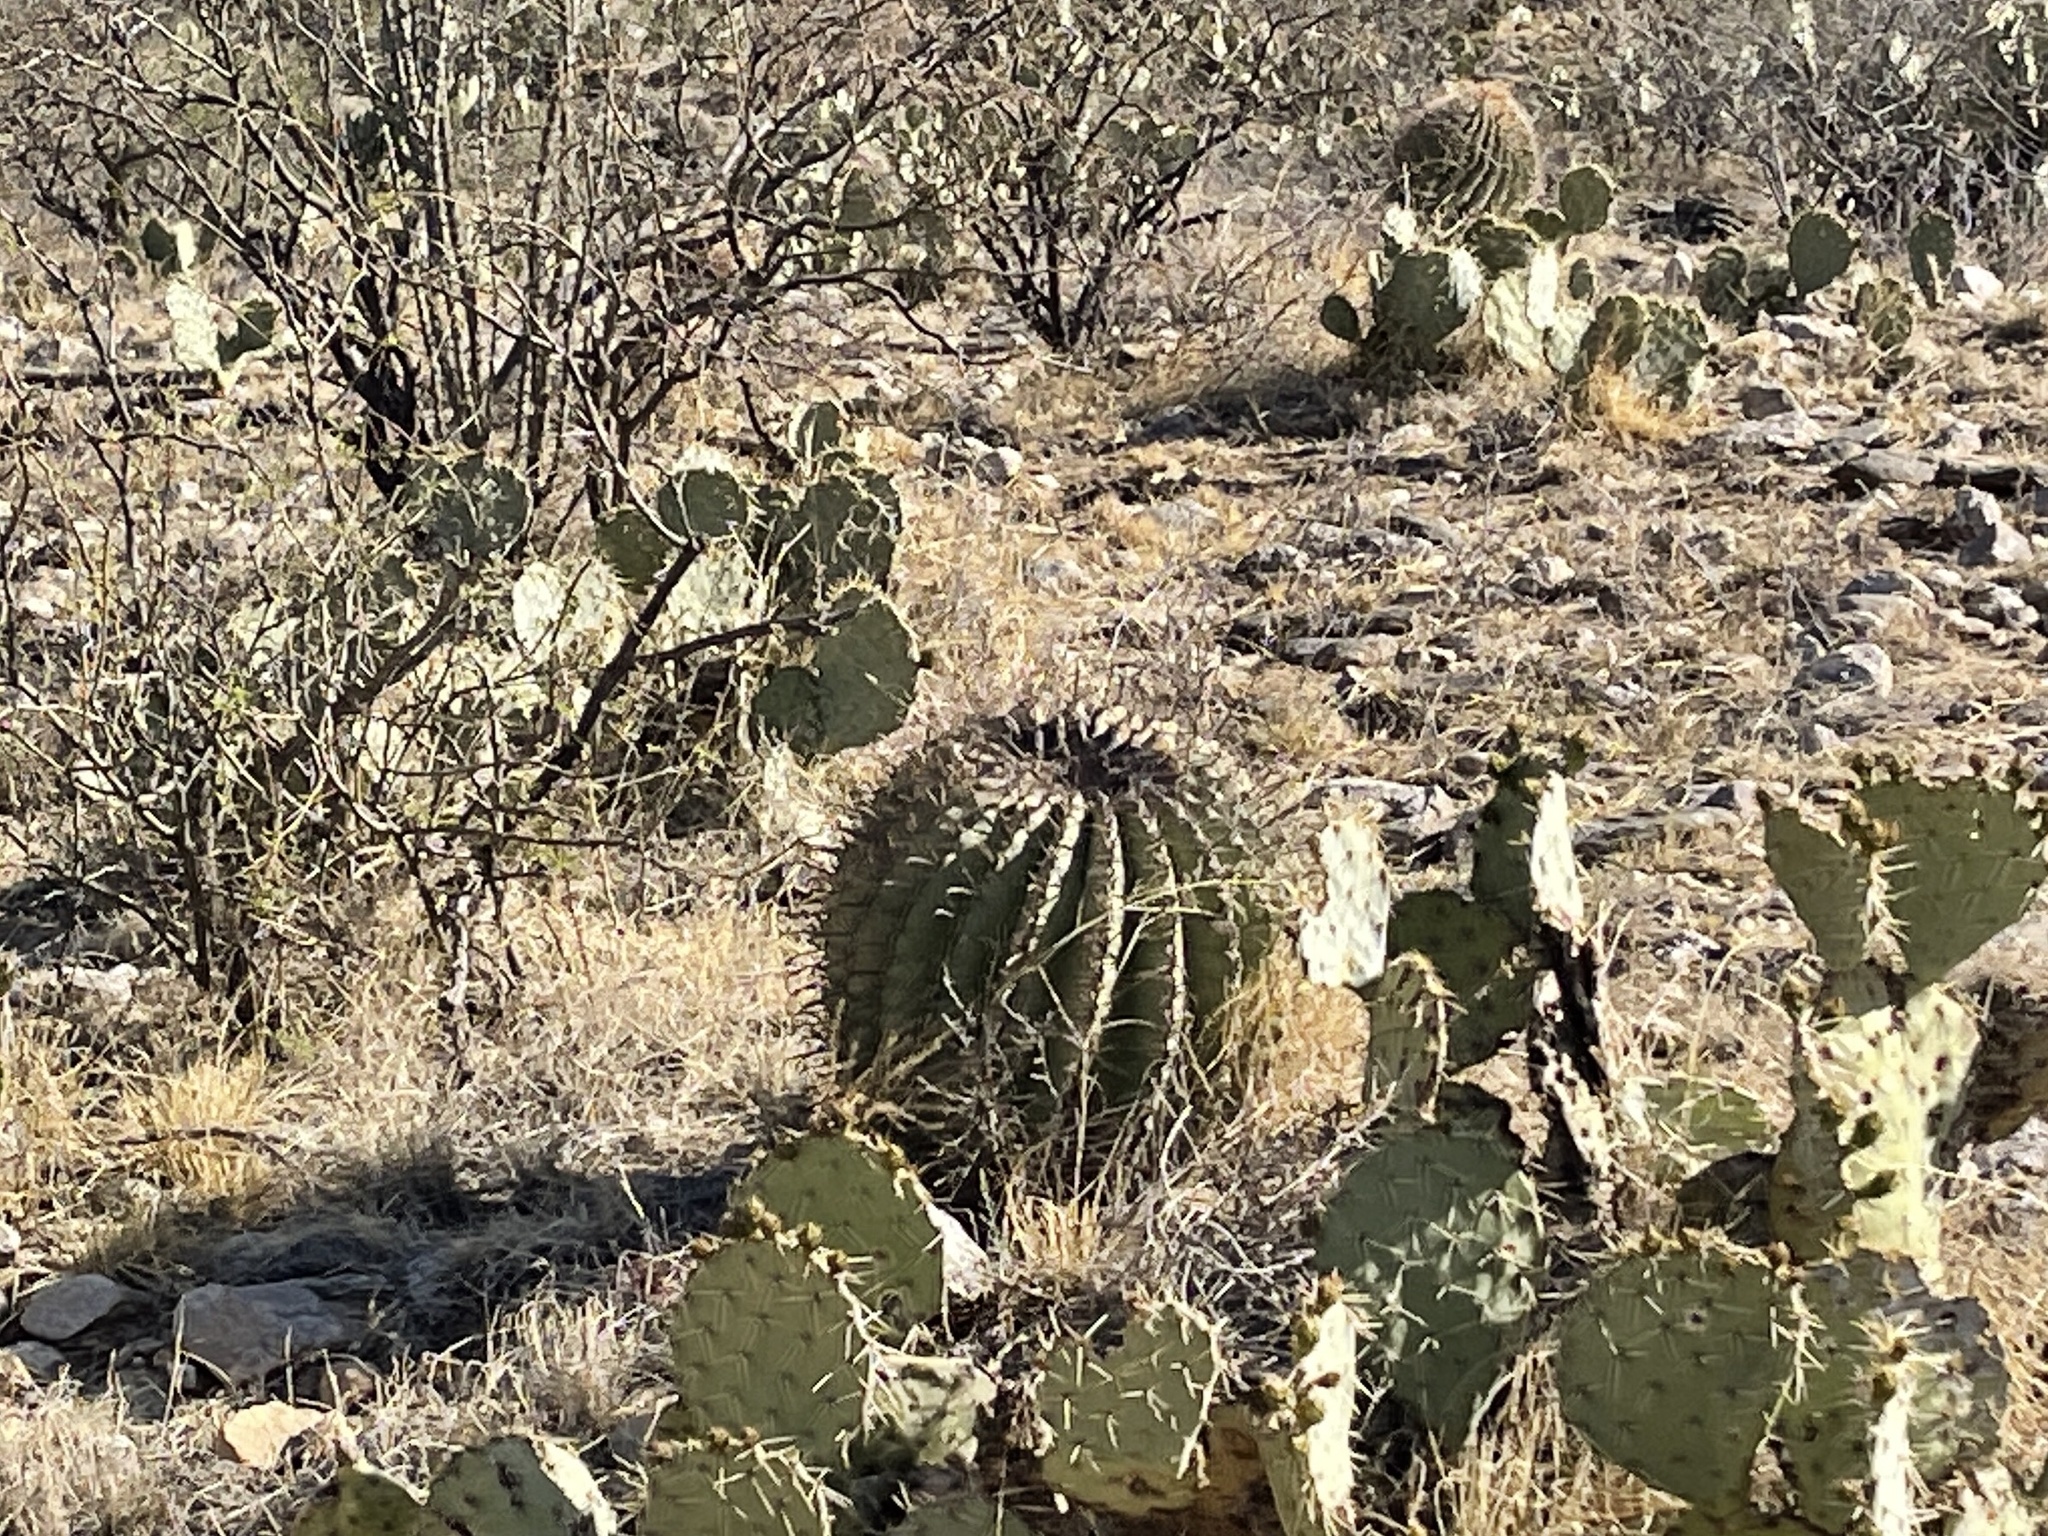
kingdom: Plantae
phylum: Tracheophyta
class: Magnoliopsida
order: Caryophyllales
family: Cactaceae
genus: Ferocactus
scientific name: Ferocactus wislizeni
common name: Candy barrel cactus
